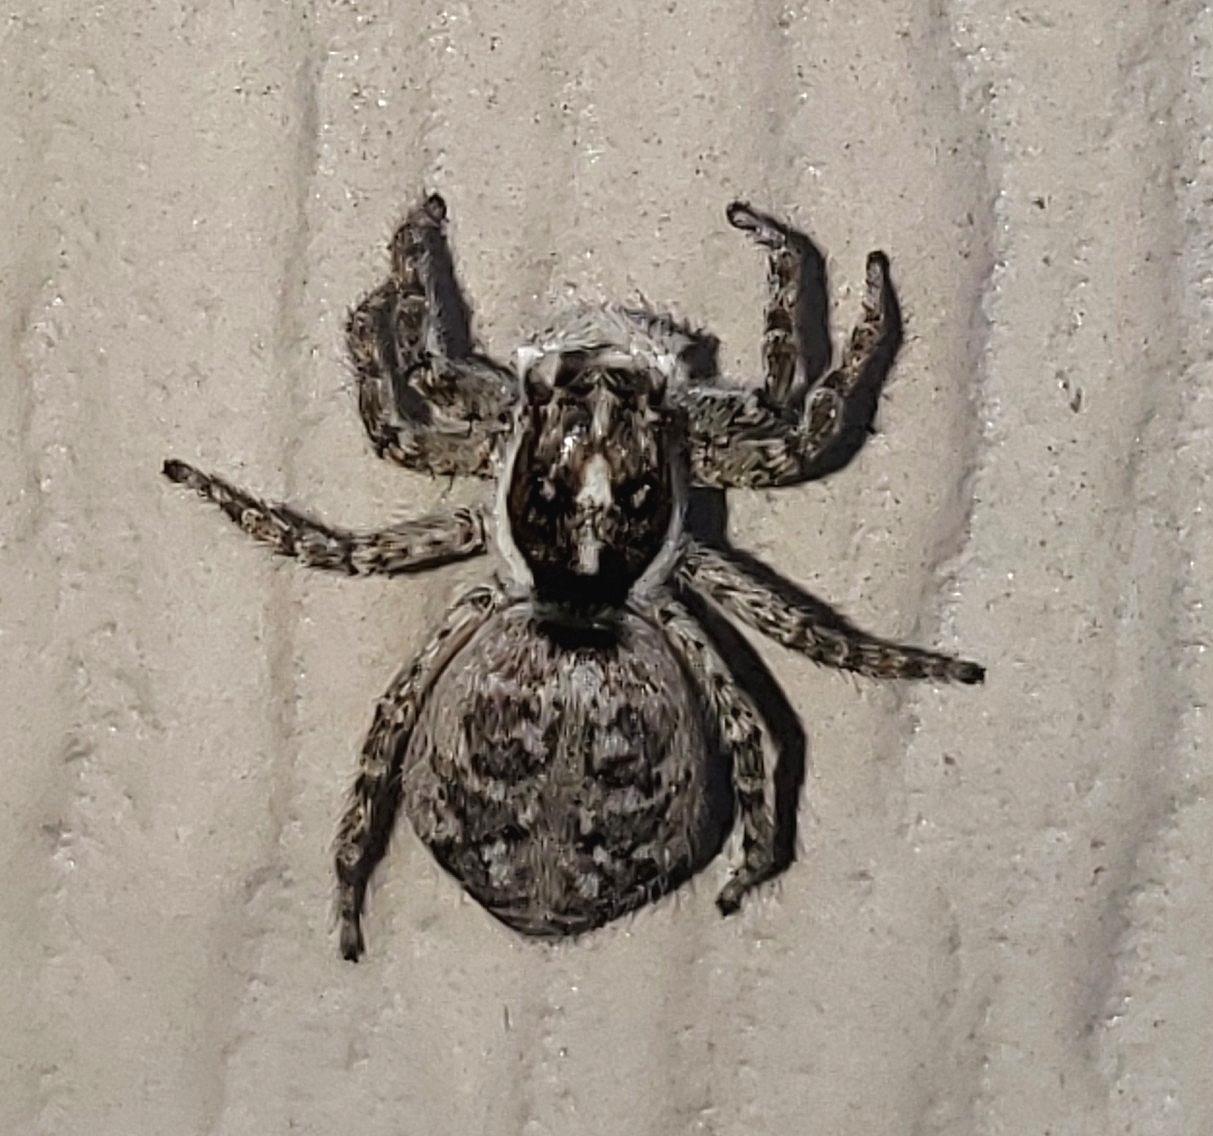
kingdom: Animalia
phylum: Arthropoda
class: Arachnida
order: Araneae
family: Salticidae
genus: Menemerus
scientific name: Menemerus semilimbatus
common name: Jumping spider
